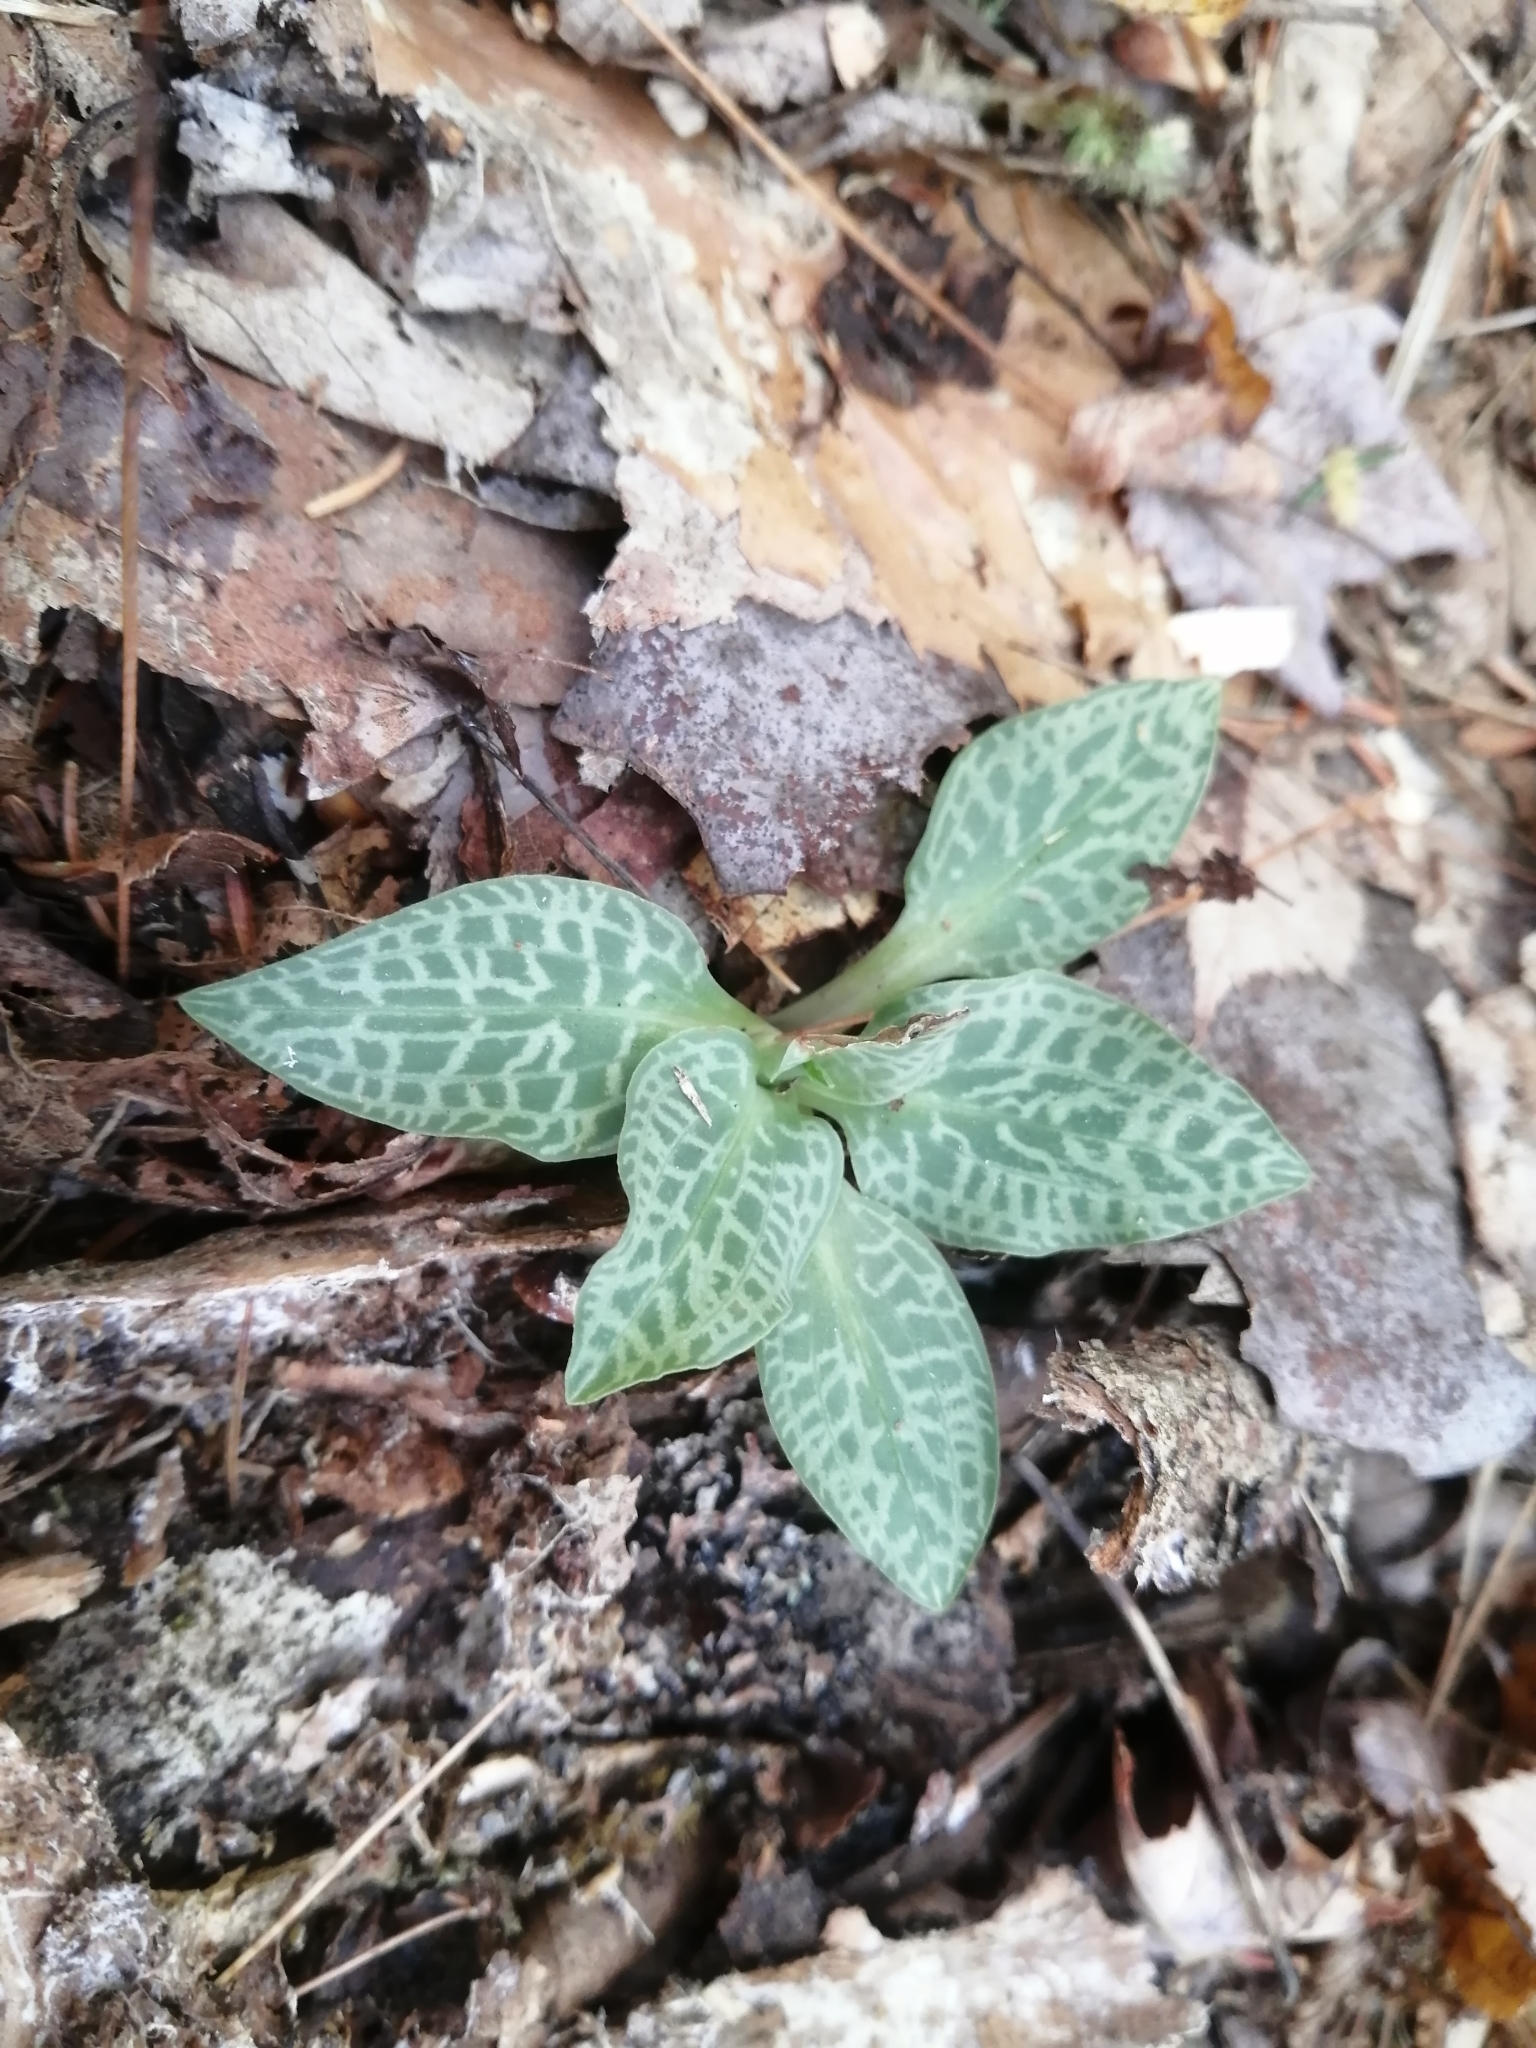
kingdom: Plantae
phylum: Tracheophyta
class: Liliopsida
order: Asparagales
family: Orchidaceae
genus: Goodyera
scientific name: Goodyera tesselata
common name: Checkered rattlesnake-plantain
